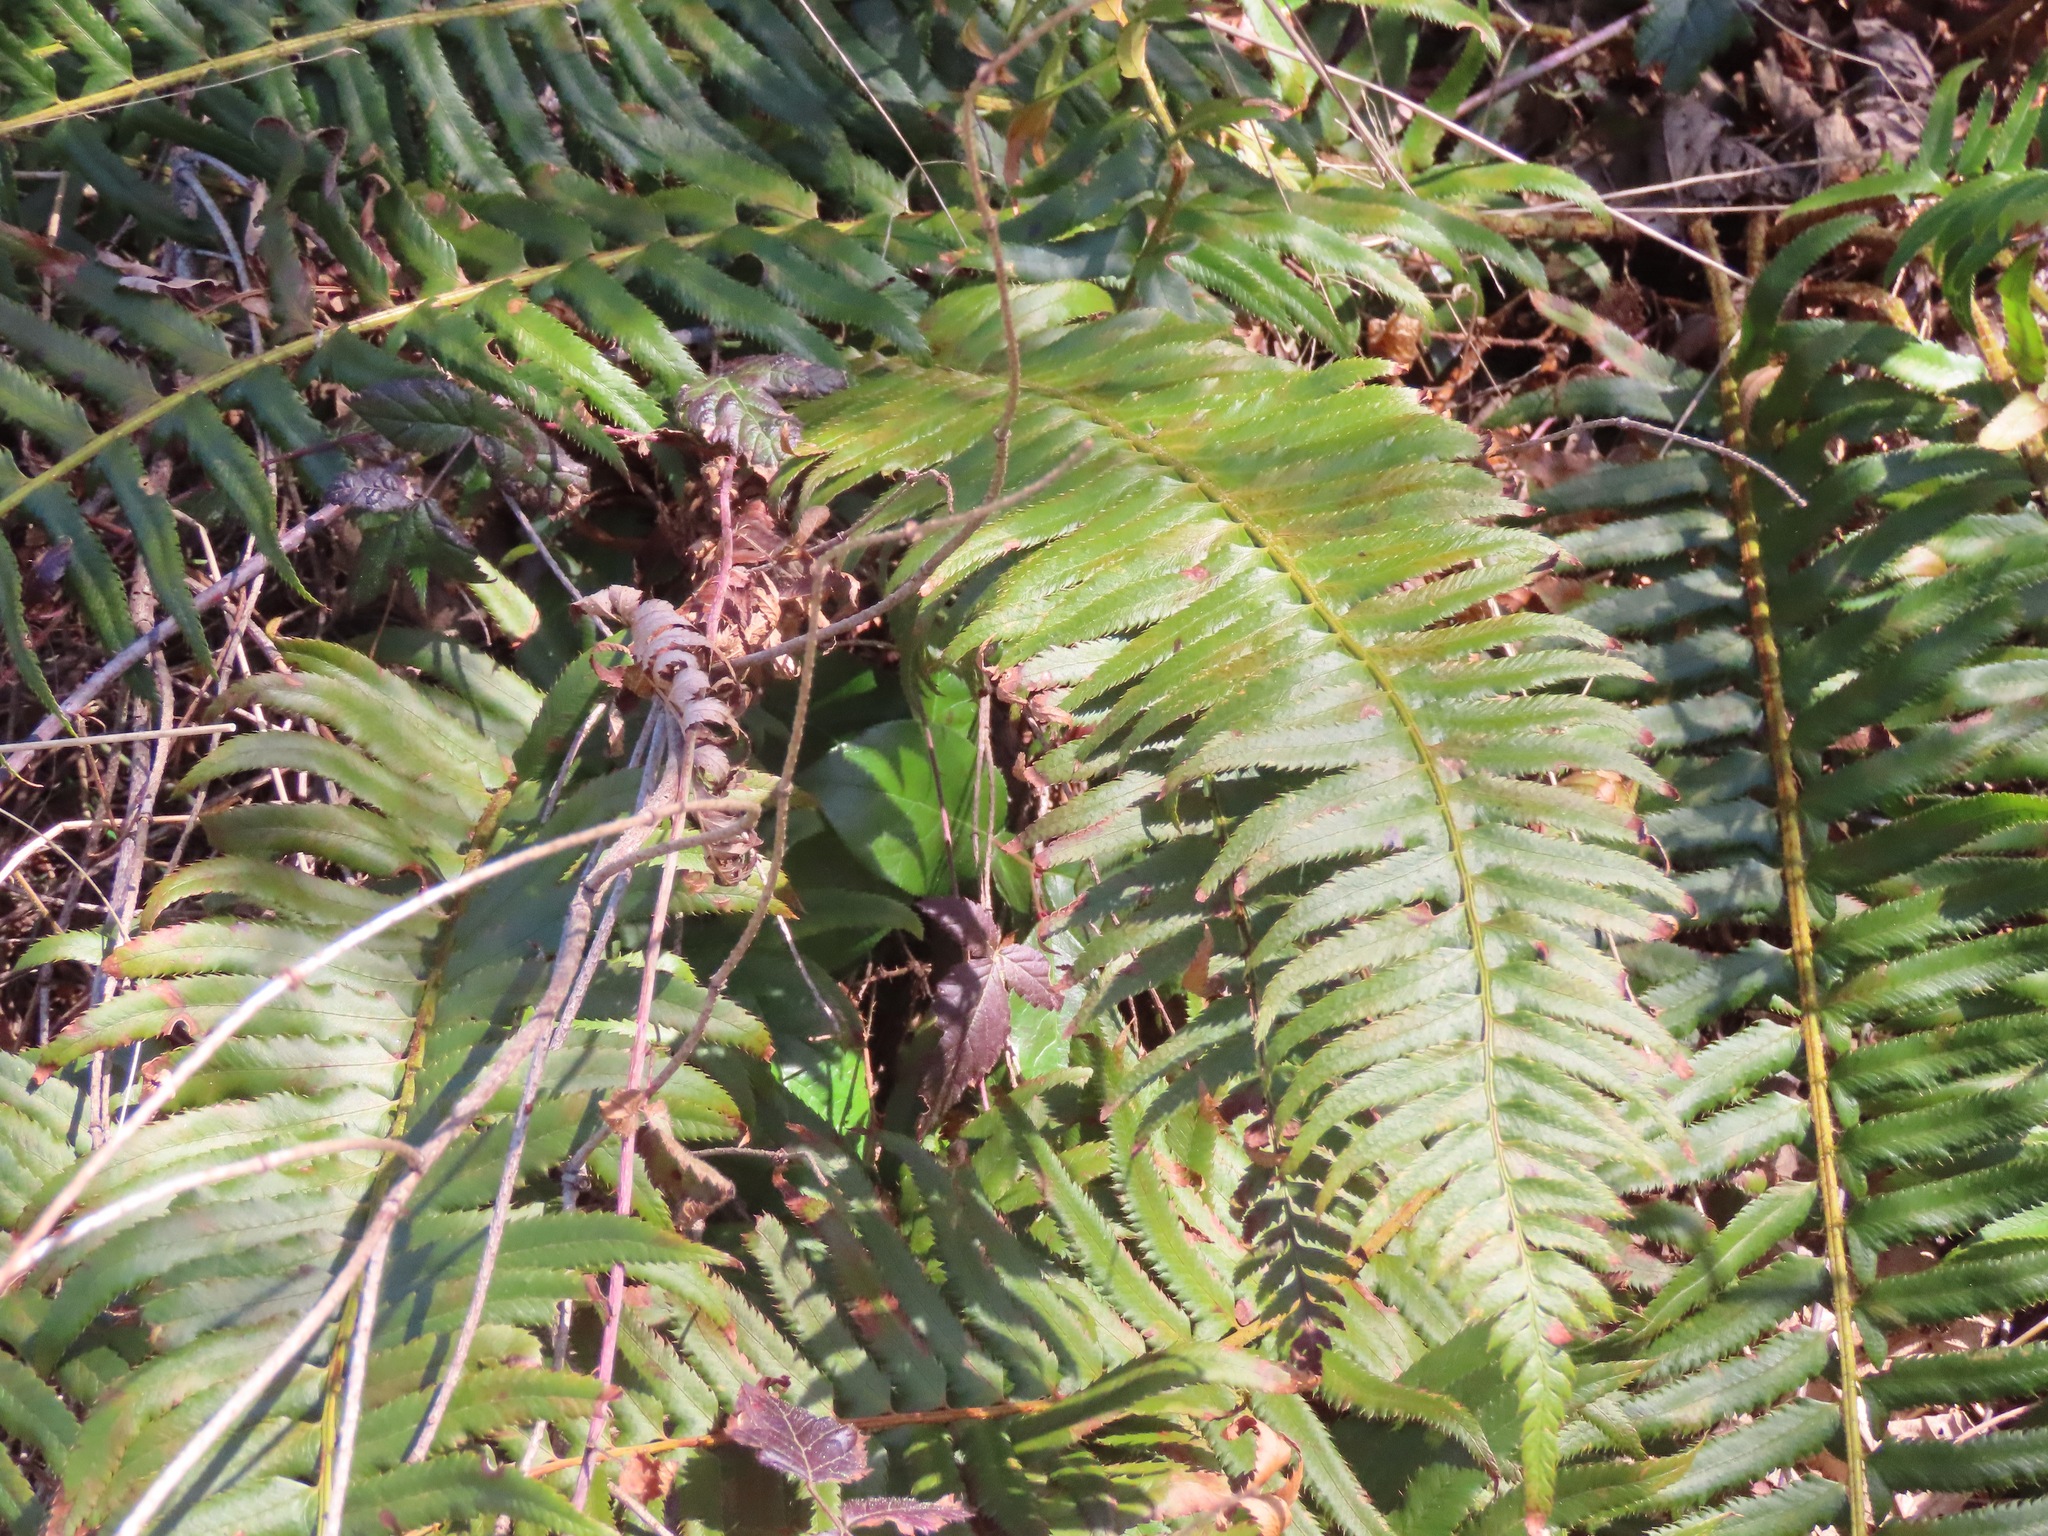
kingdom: Plantae
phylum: Tracheophyta
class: Polypodiopsida
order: Polypodiales
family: Dryopteridaceae
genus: Polystichum
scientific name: Polystichum munitum
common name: Western sword-fern
